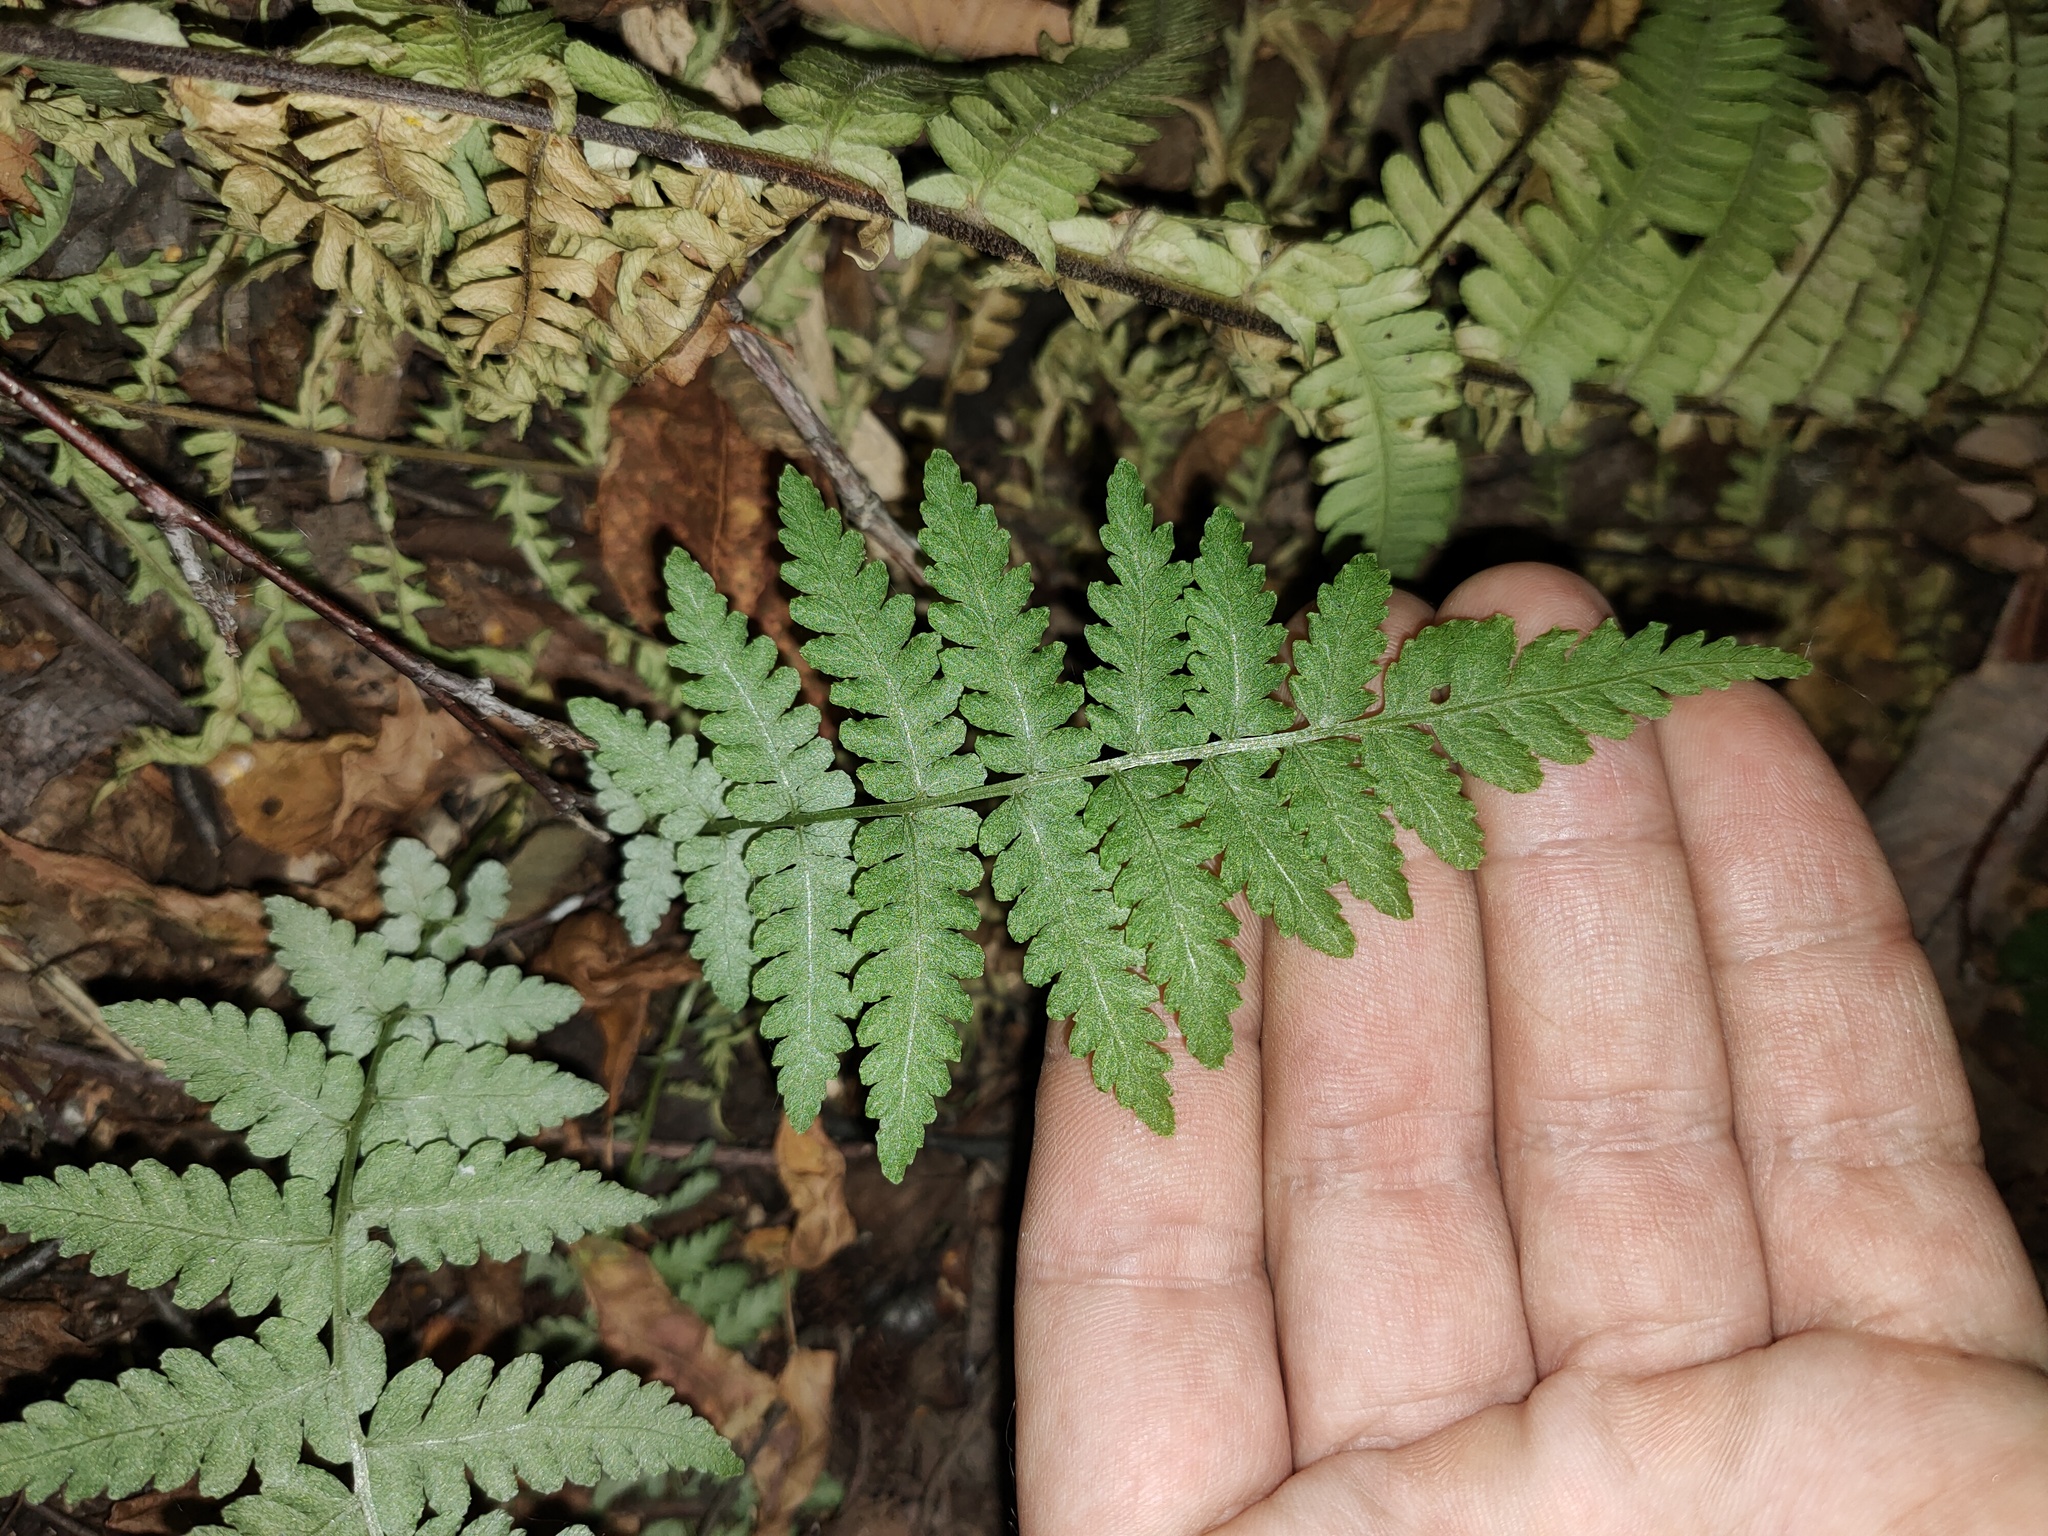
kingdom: Plantae
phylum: Tracheophyta
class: Polypodiopsida
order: Polypodiales
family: Dryopteridaceae
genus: Dryopteris
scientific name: Dryopteris filix-mas
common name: Male fern
